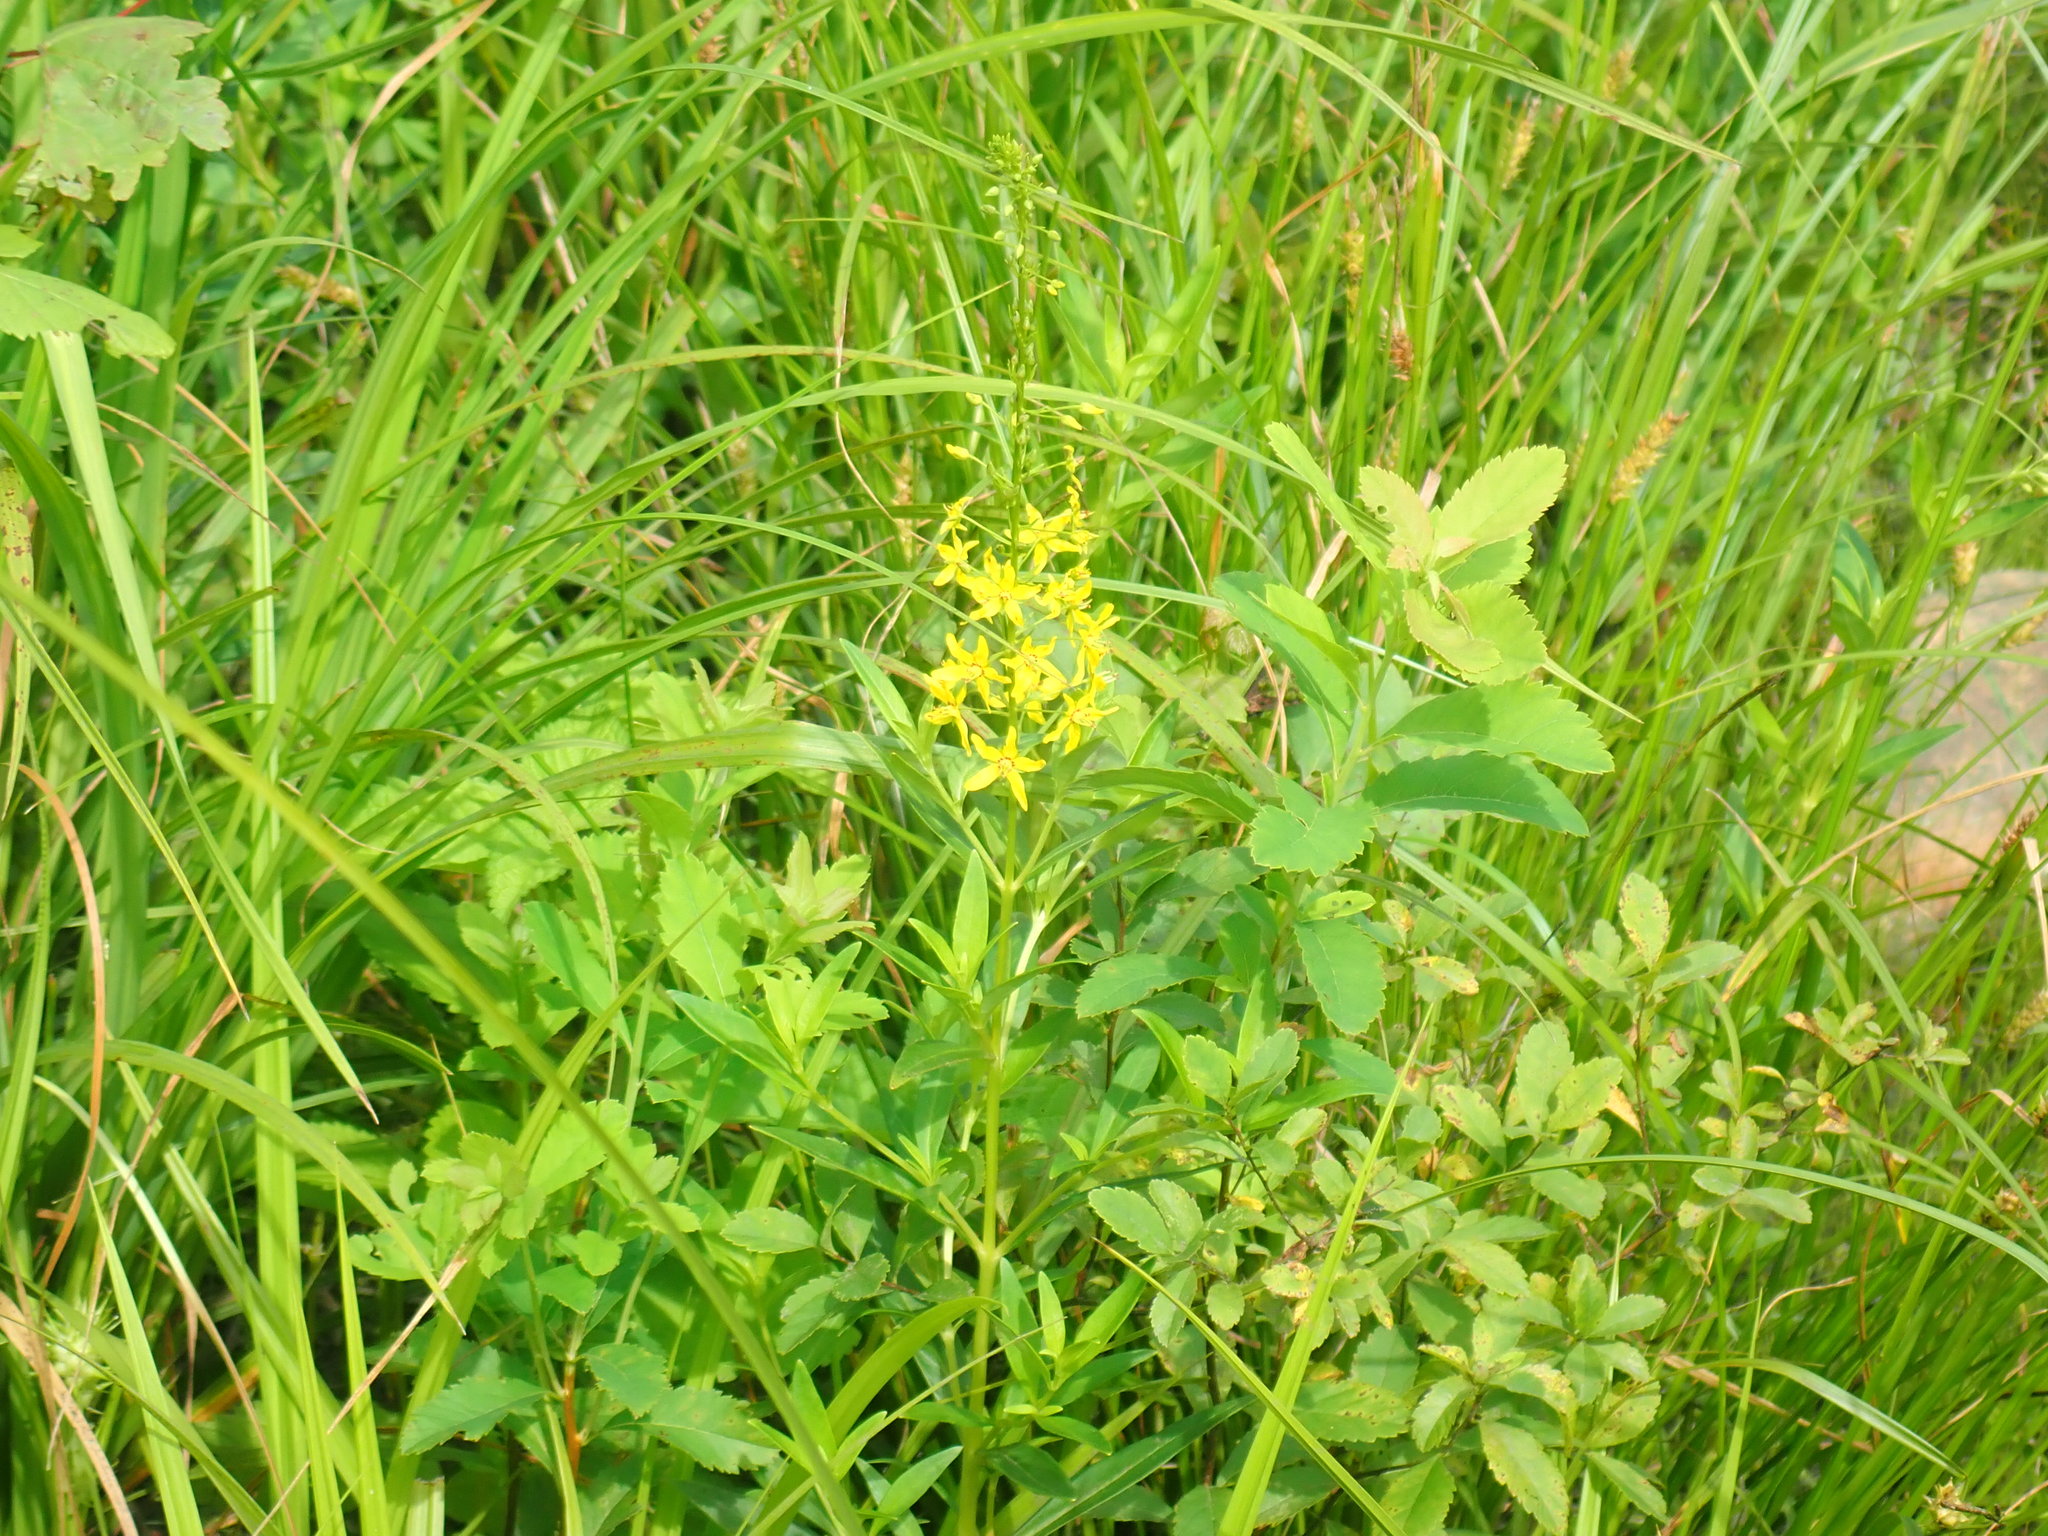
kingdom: Plantae
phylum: Tracheophyta
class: Magnoliopsida
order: Ericales
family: Primulaceae
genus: Lysimachia
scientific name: Lysimachia terrestris
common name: Lake loosestrife
